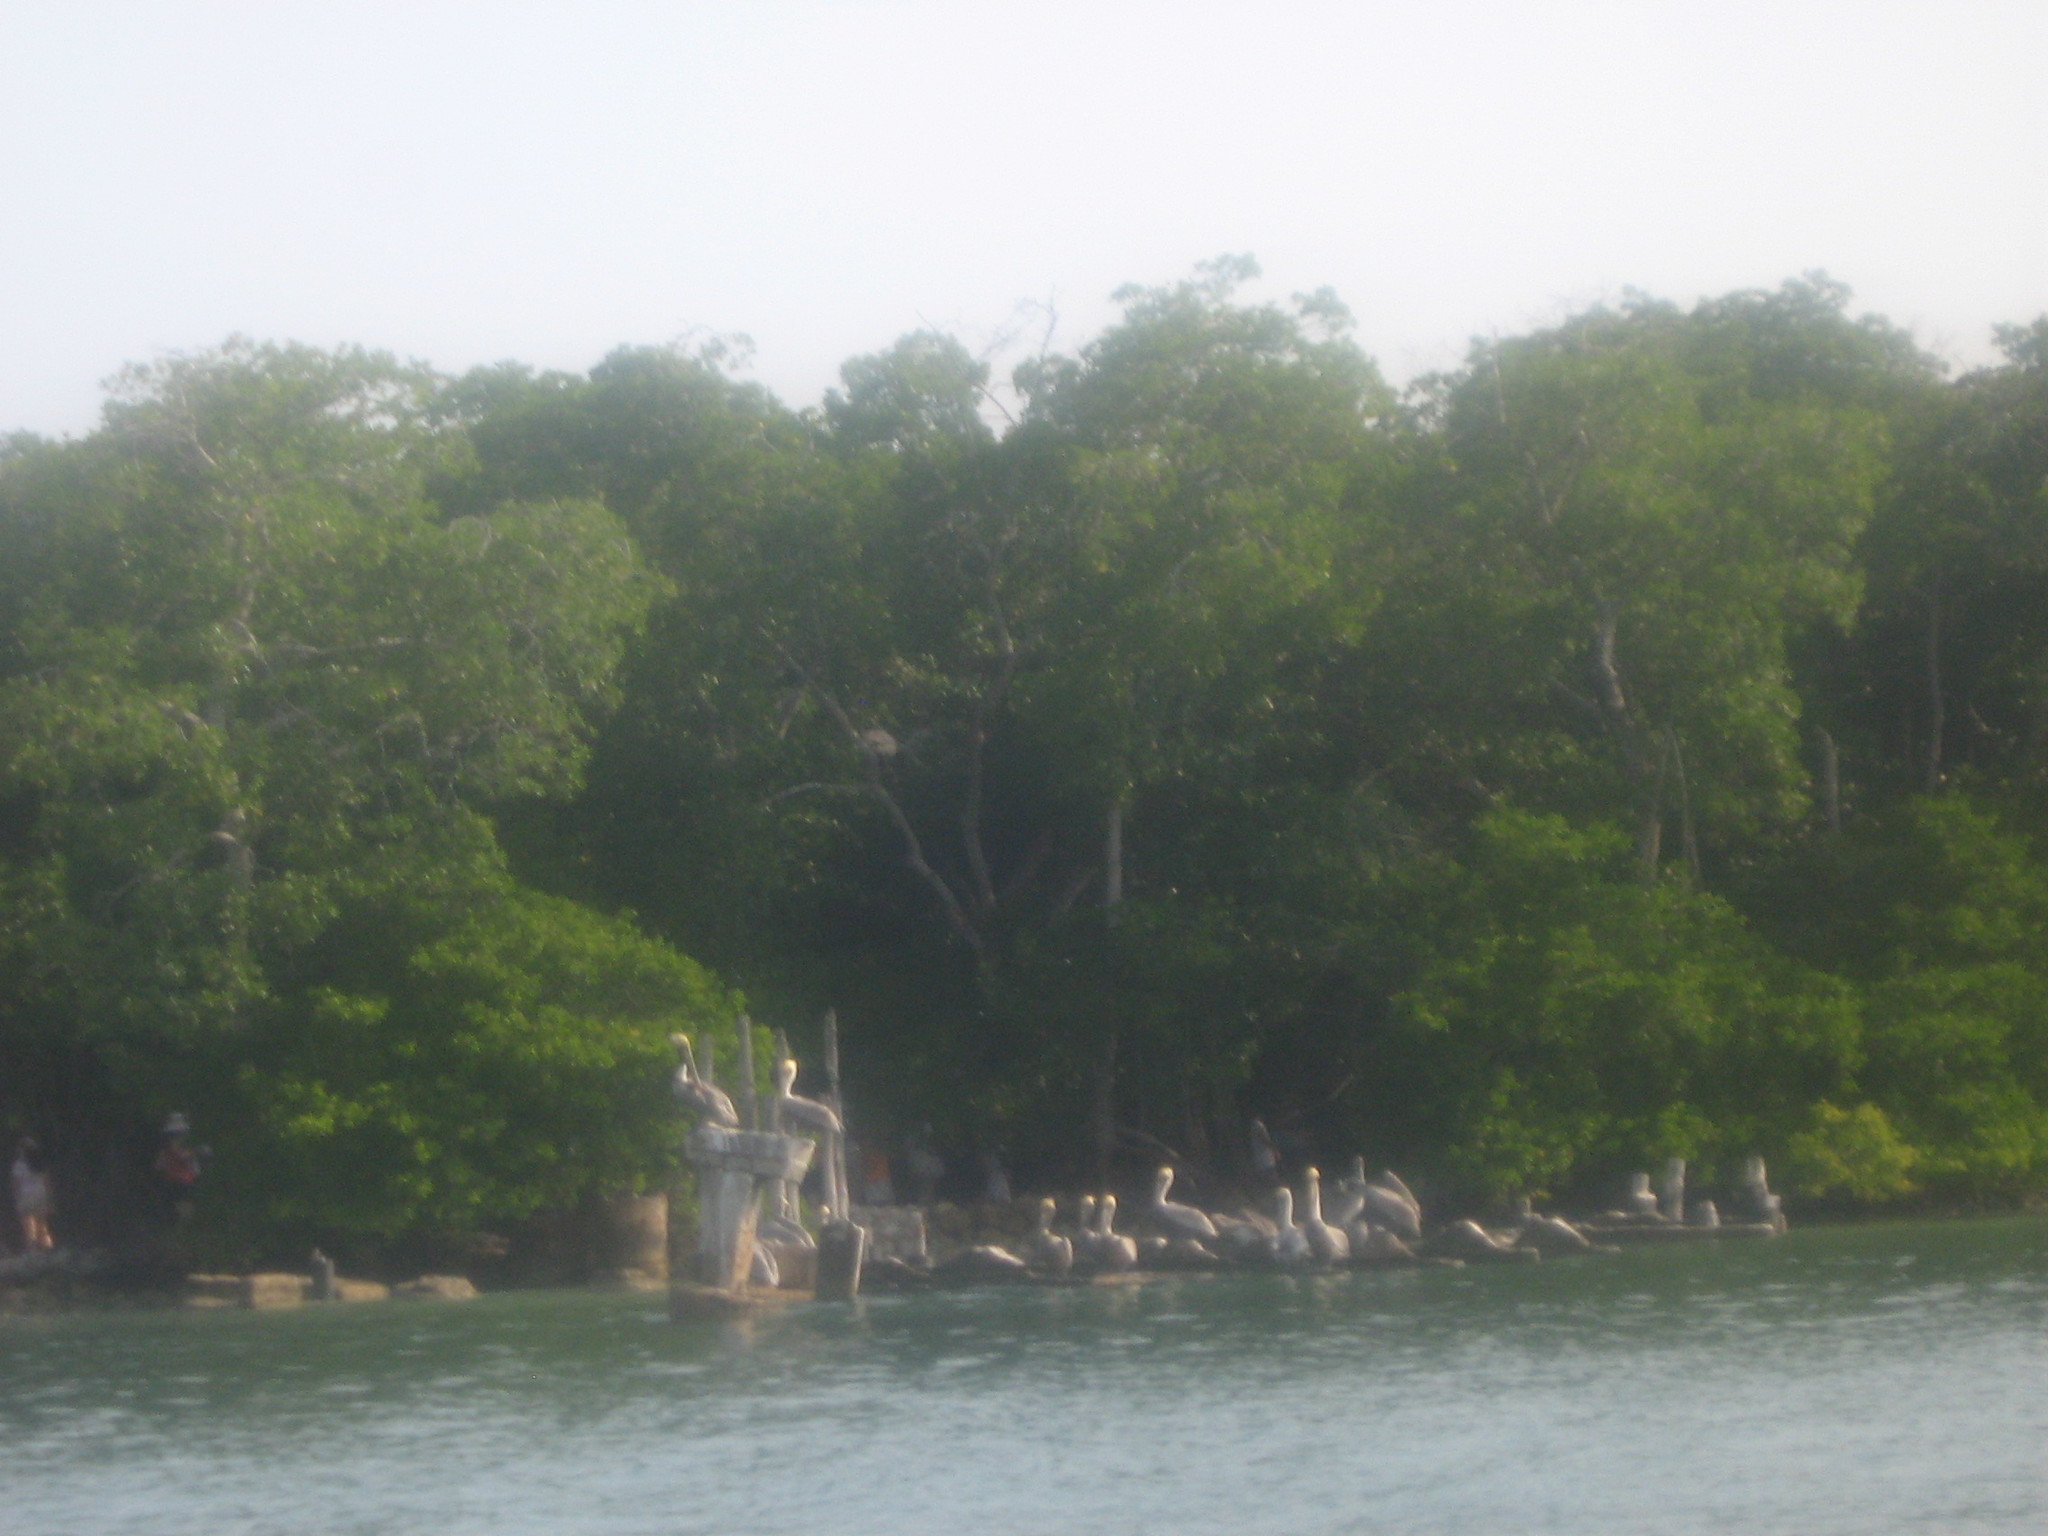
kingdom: Animalia
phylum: Chordata
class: Aves
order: Pelecaniformes
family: Pelecanidae
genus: Pelecanus
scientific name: Pelecanus occidentalis
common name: Brown pelican
